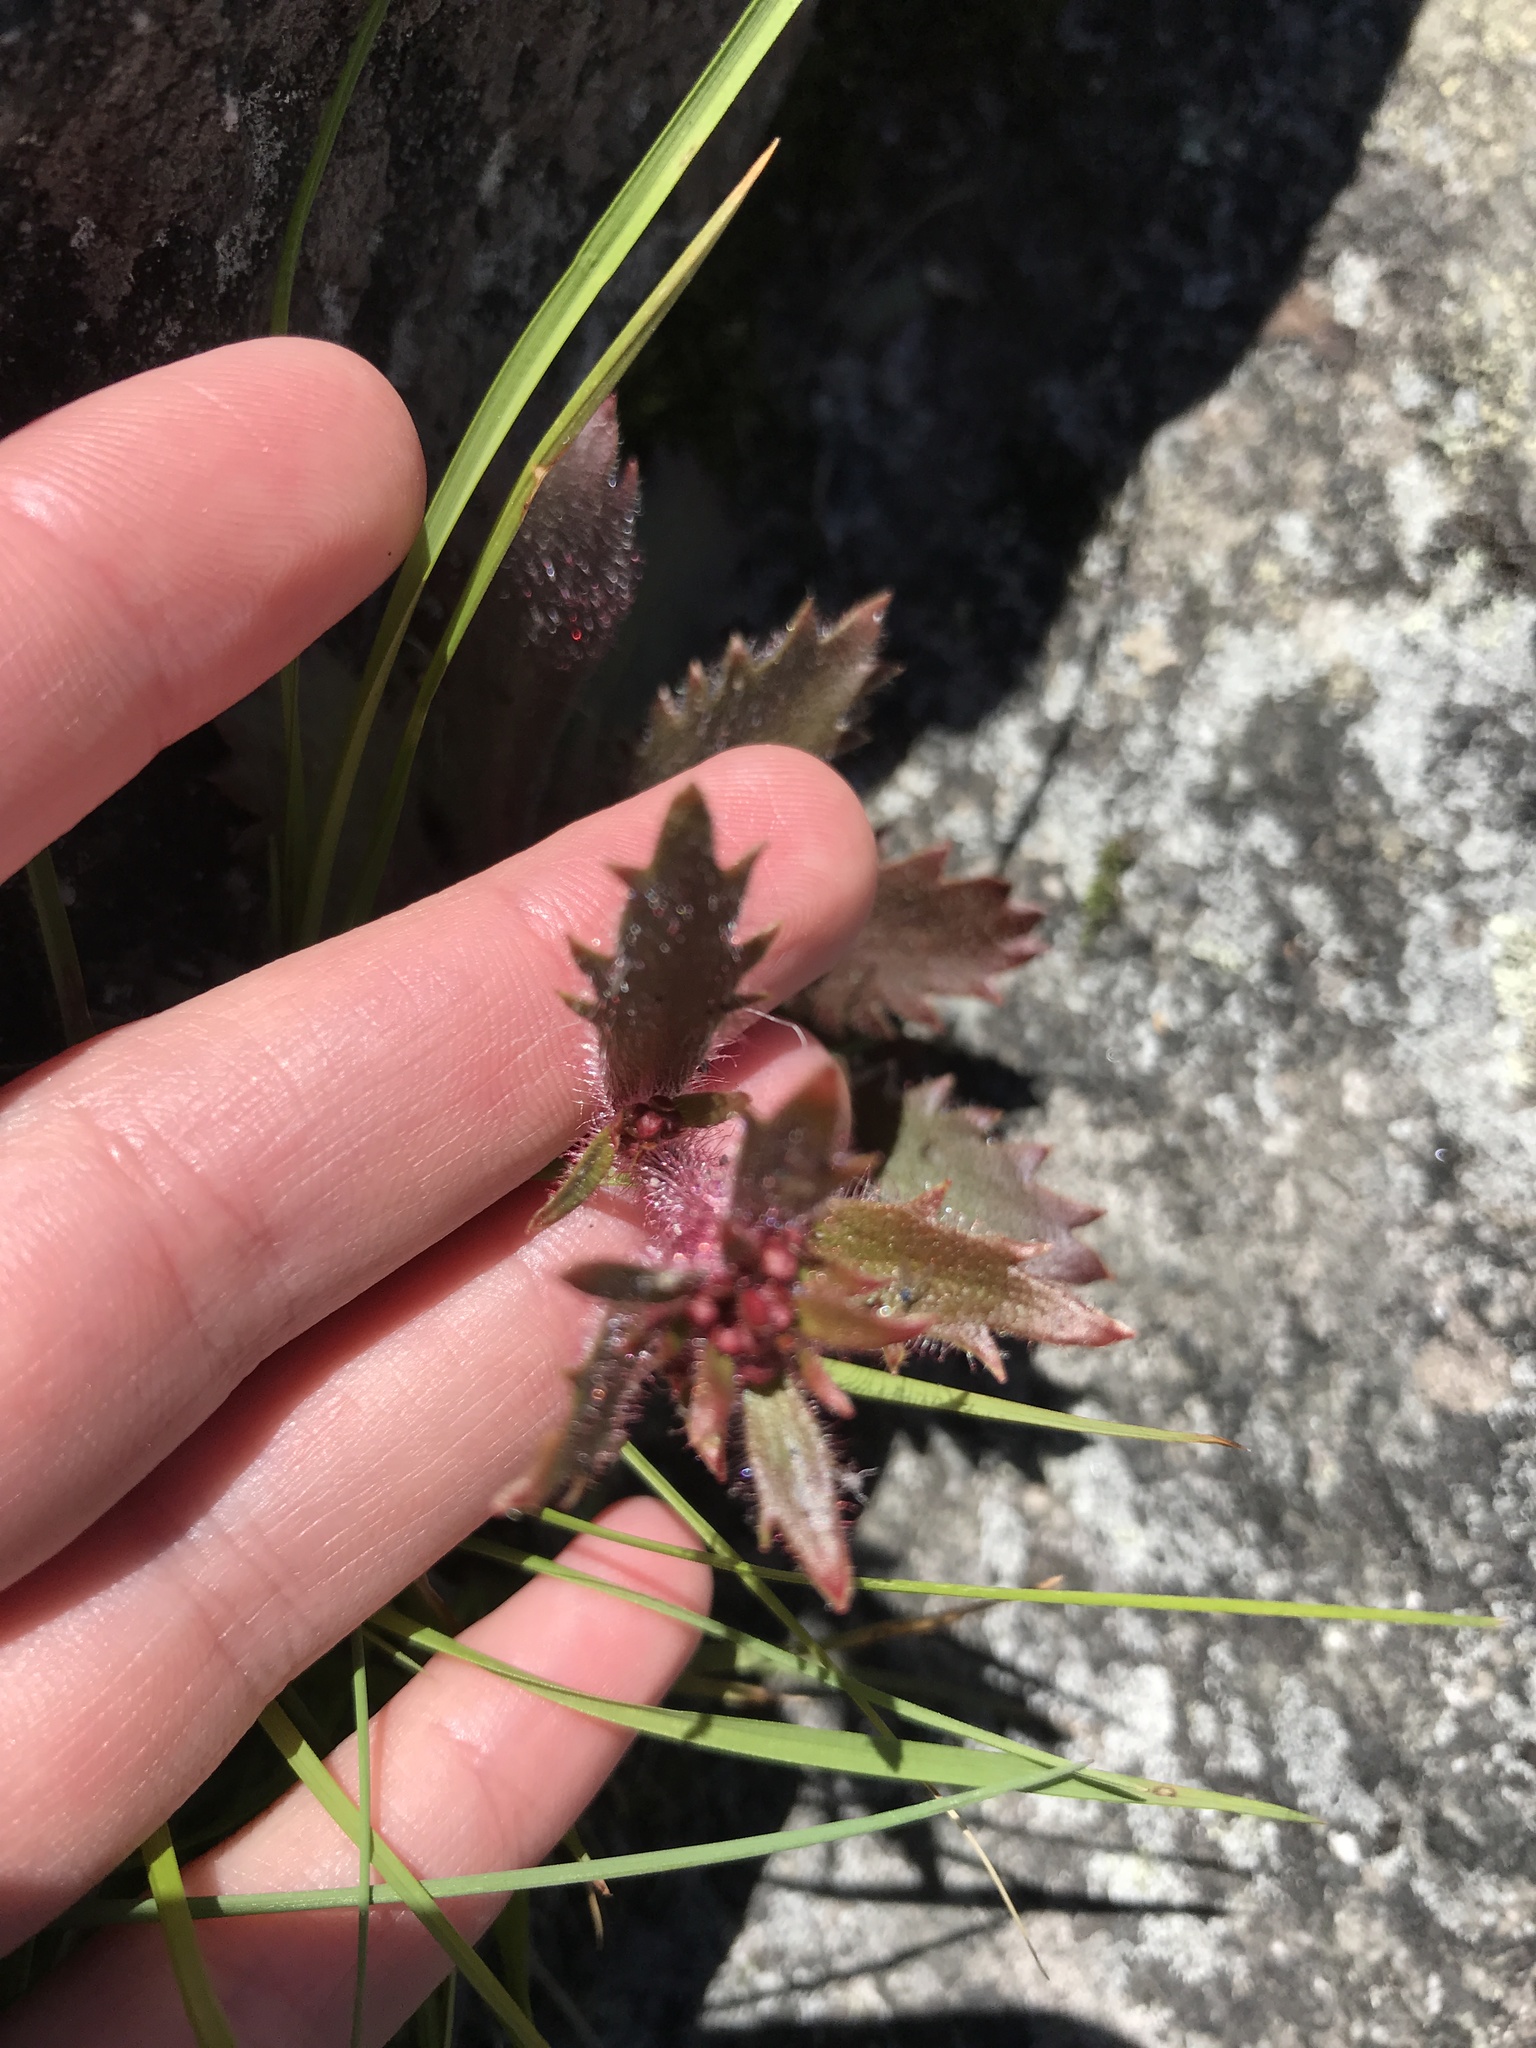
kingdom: Plantae
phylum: Tracheophyta
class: Magnoliopsida
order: Saxifragales
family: Saxifragaceae
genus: Micranthes
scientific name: Micranthes petiolaris
